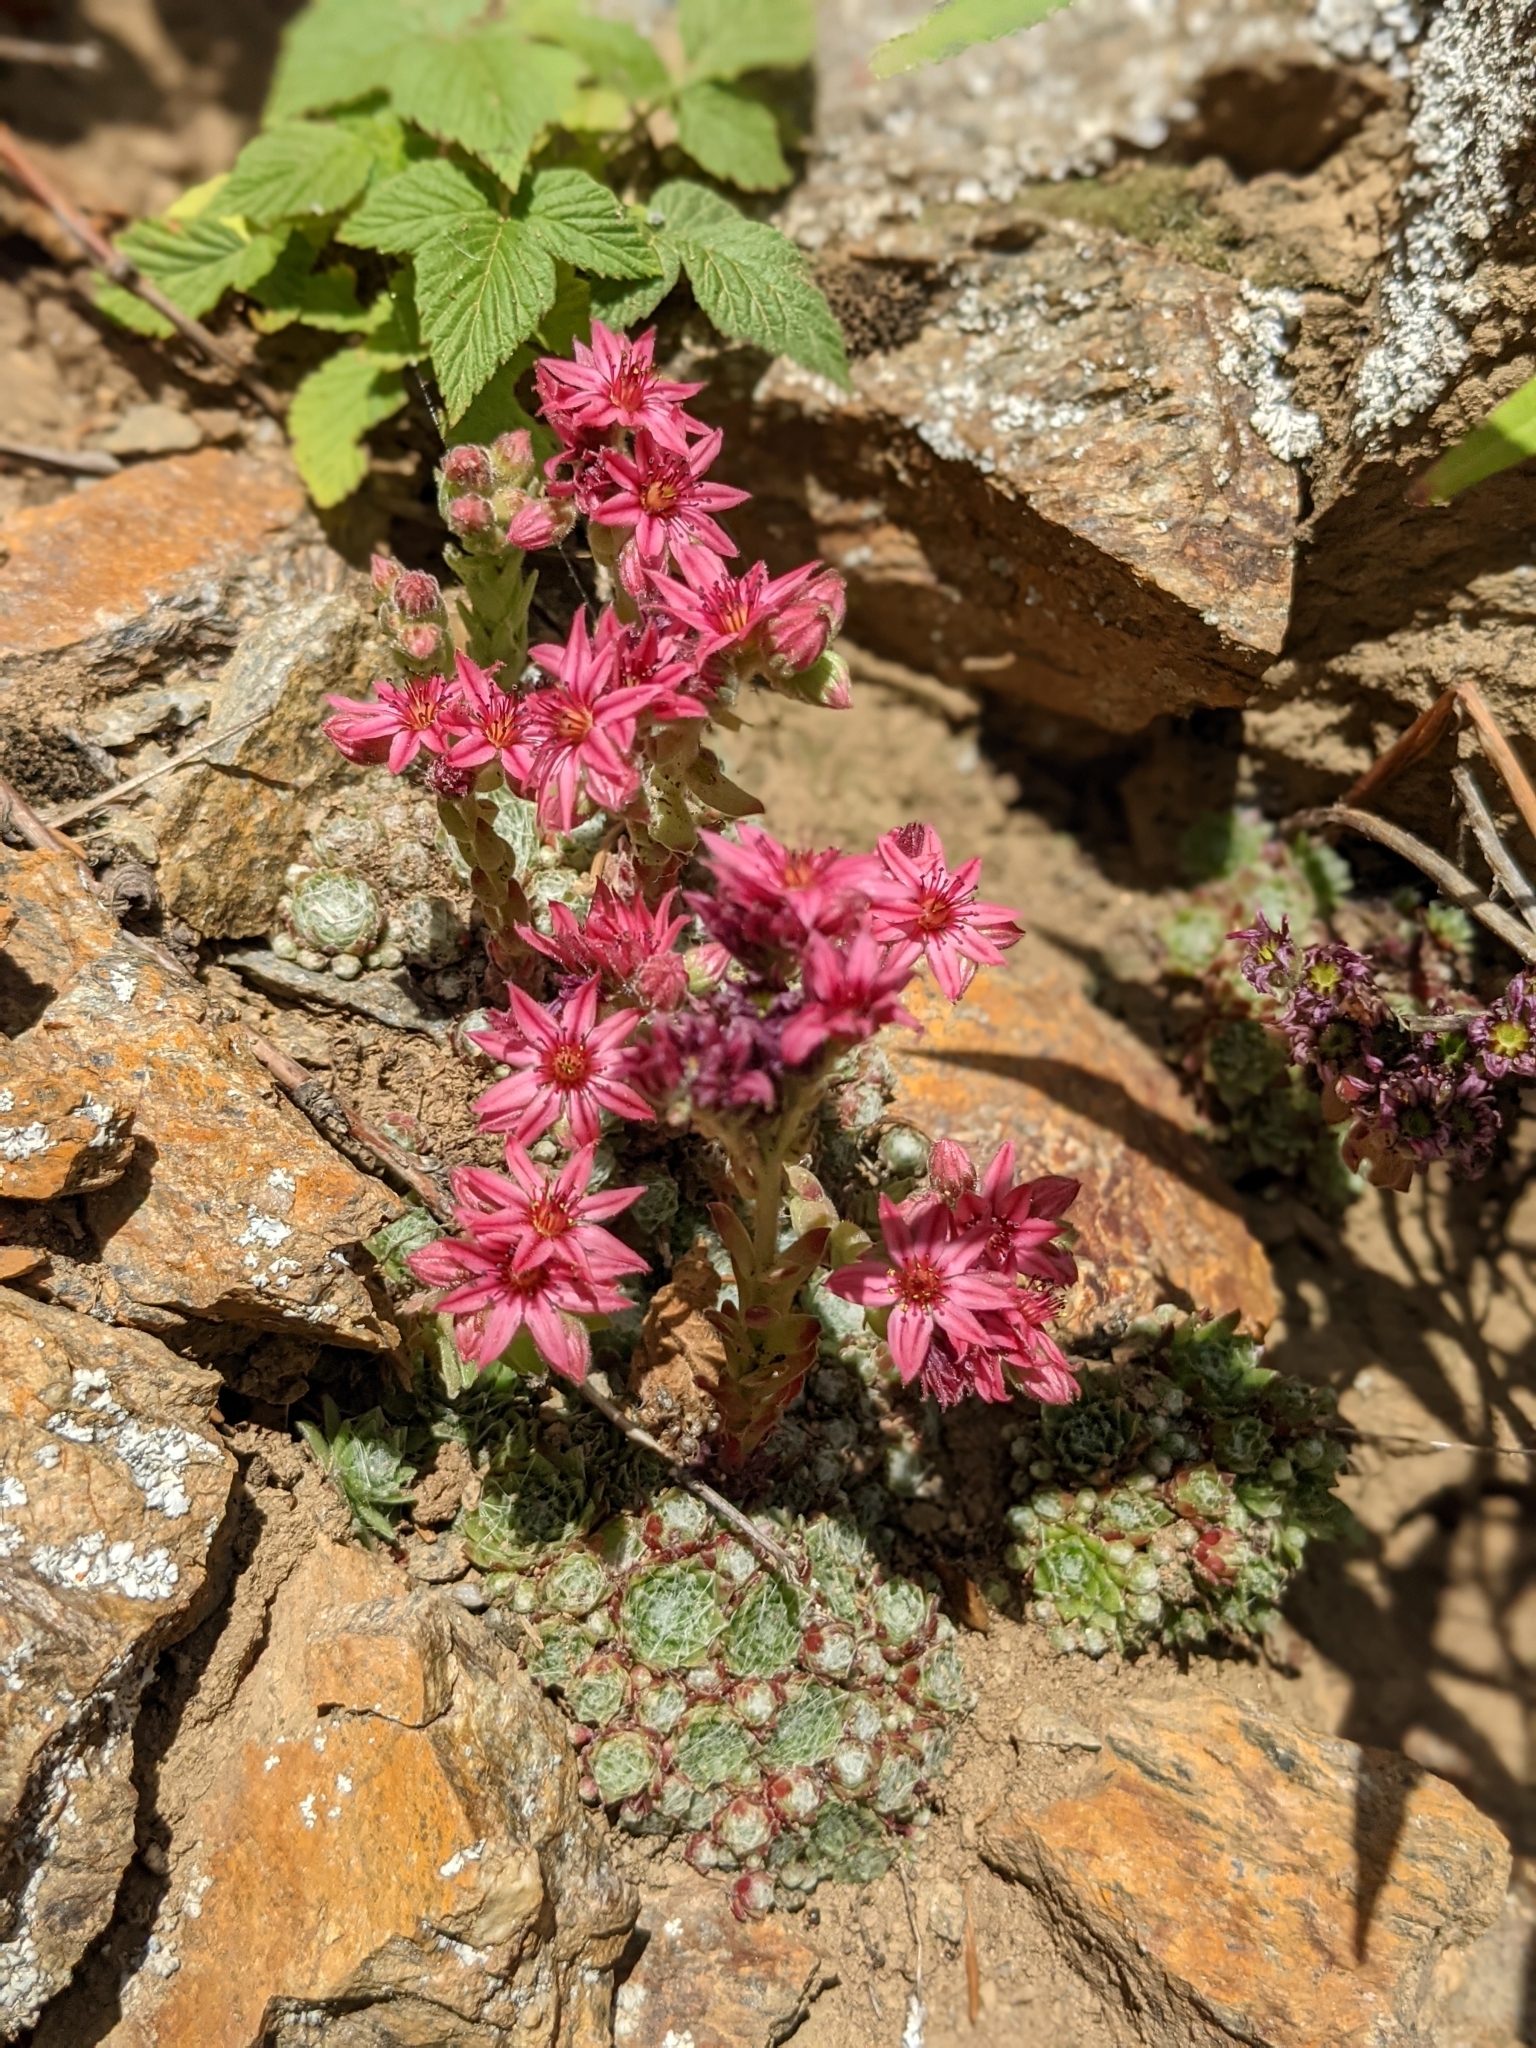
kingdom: Plantae
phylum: Tracheophyta
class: Magnoliopsida
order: Saxifragales
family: Crassulaceae
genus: Sempervivum
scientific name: Sempervivum arachnoideum
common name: Cobweb house-leek
